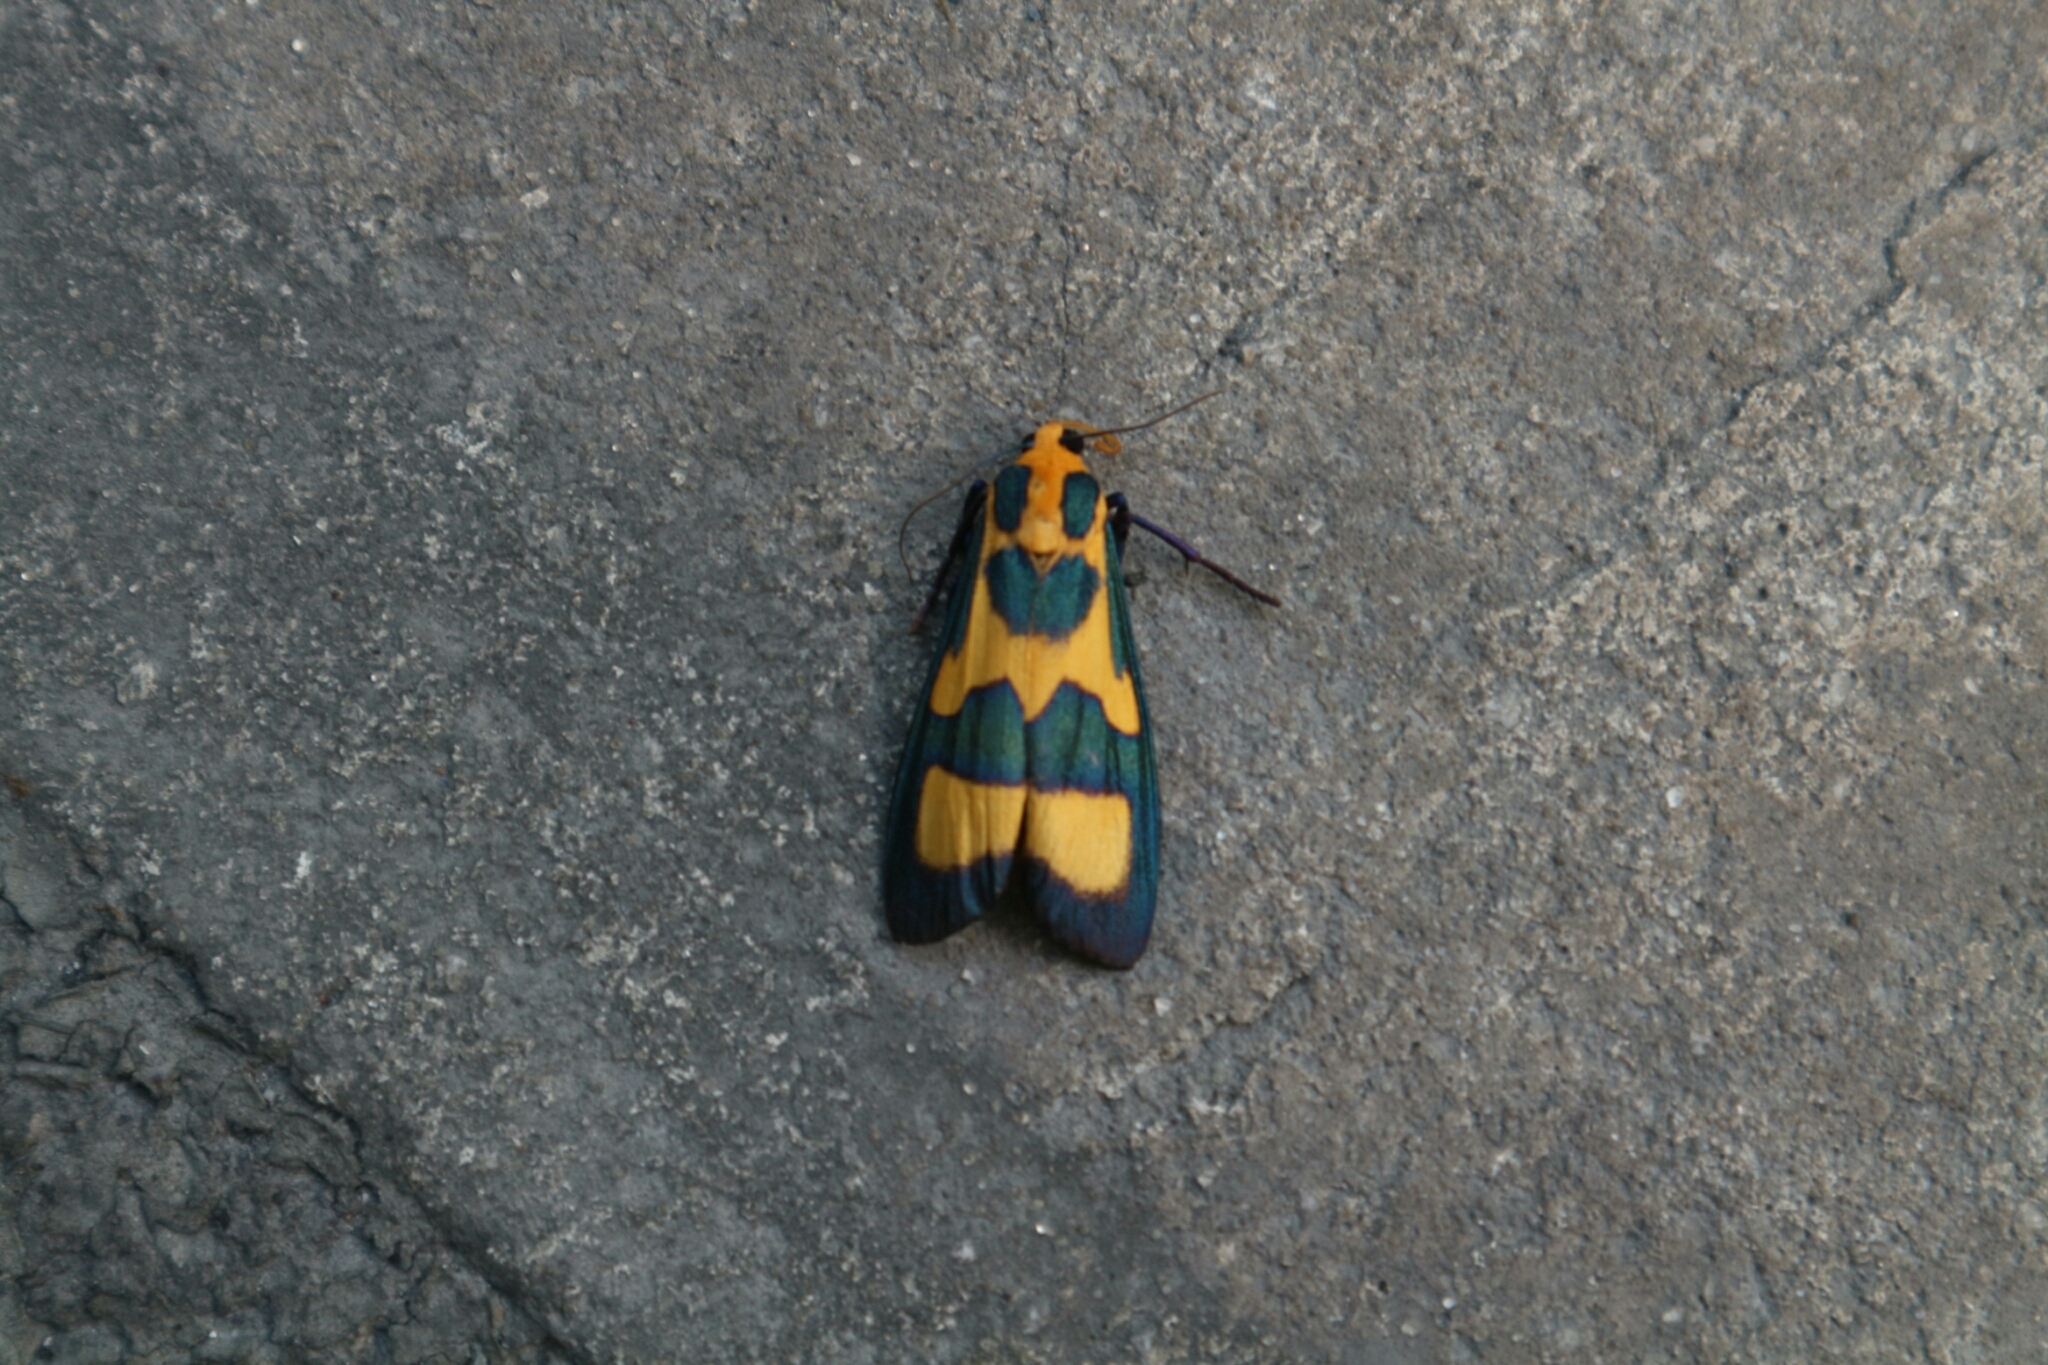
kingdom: Animalia
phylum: Arthropoda
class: Insecta
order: Lepidoptera
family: Erebidae
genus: Chrysaeglia
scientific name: Chrysaeglia magnifica
